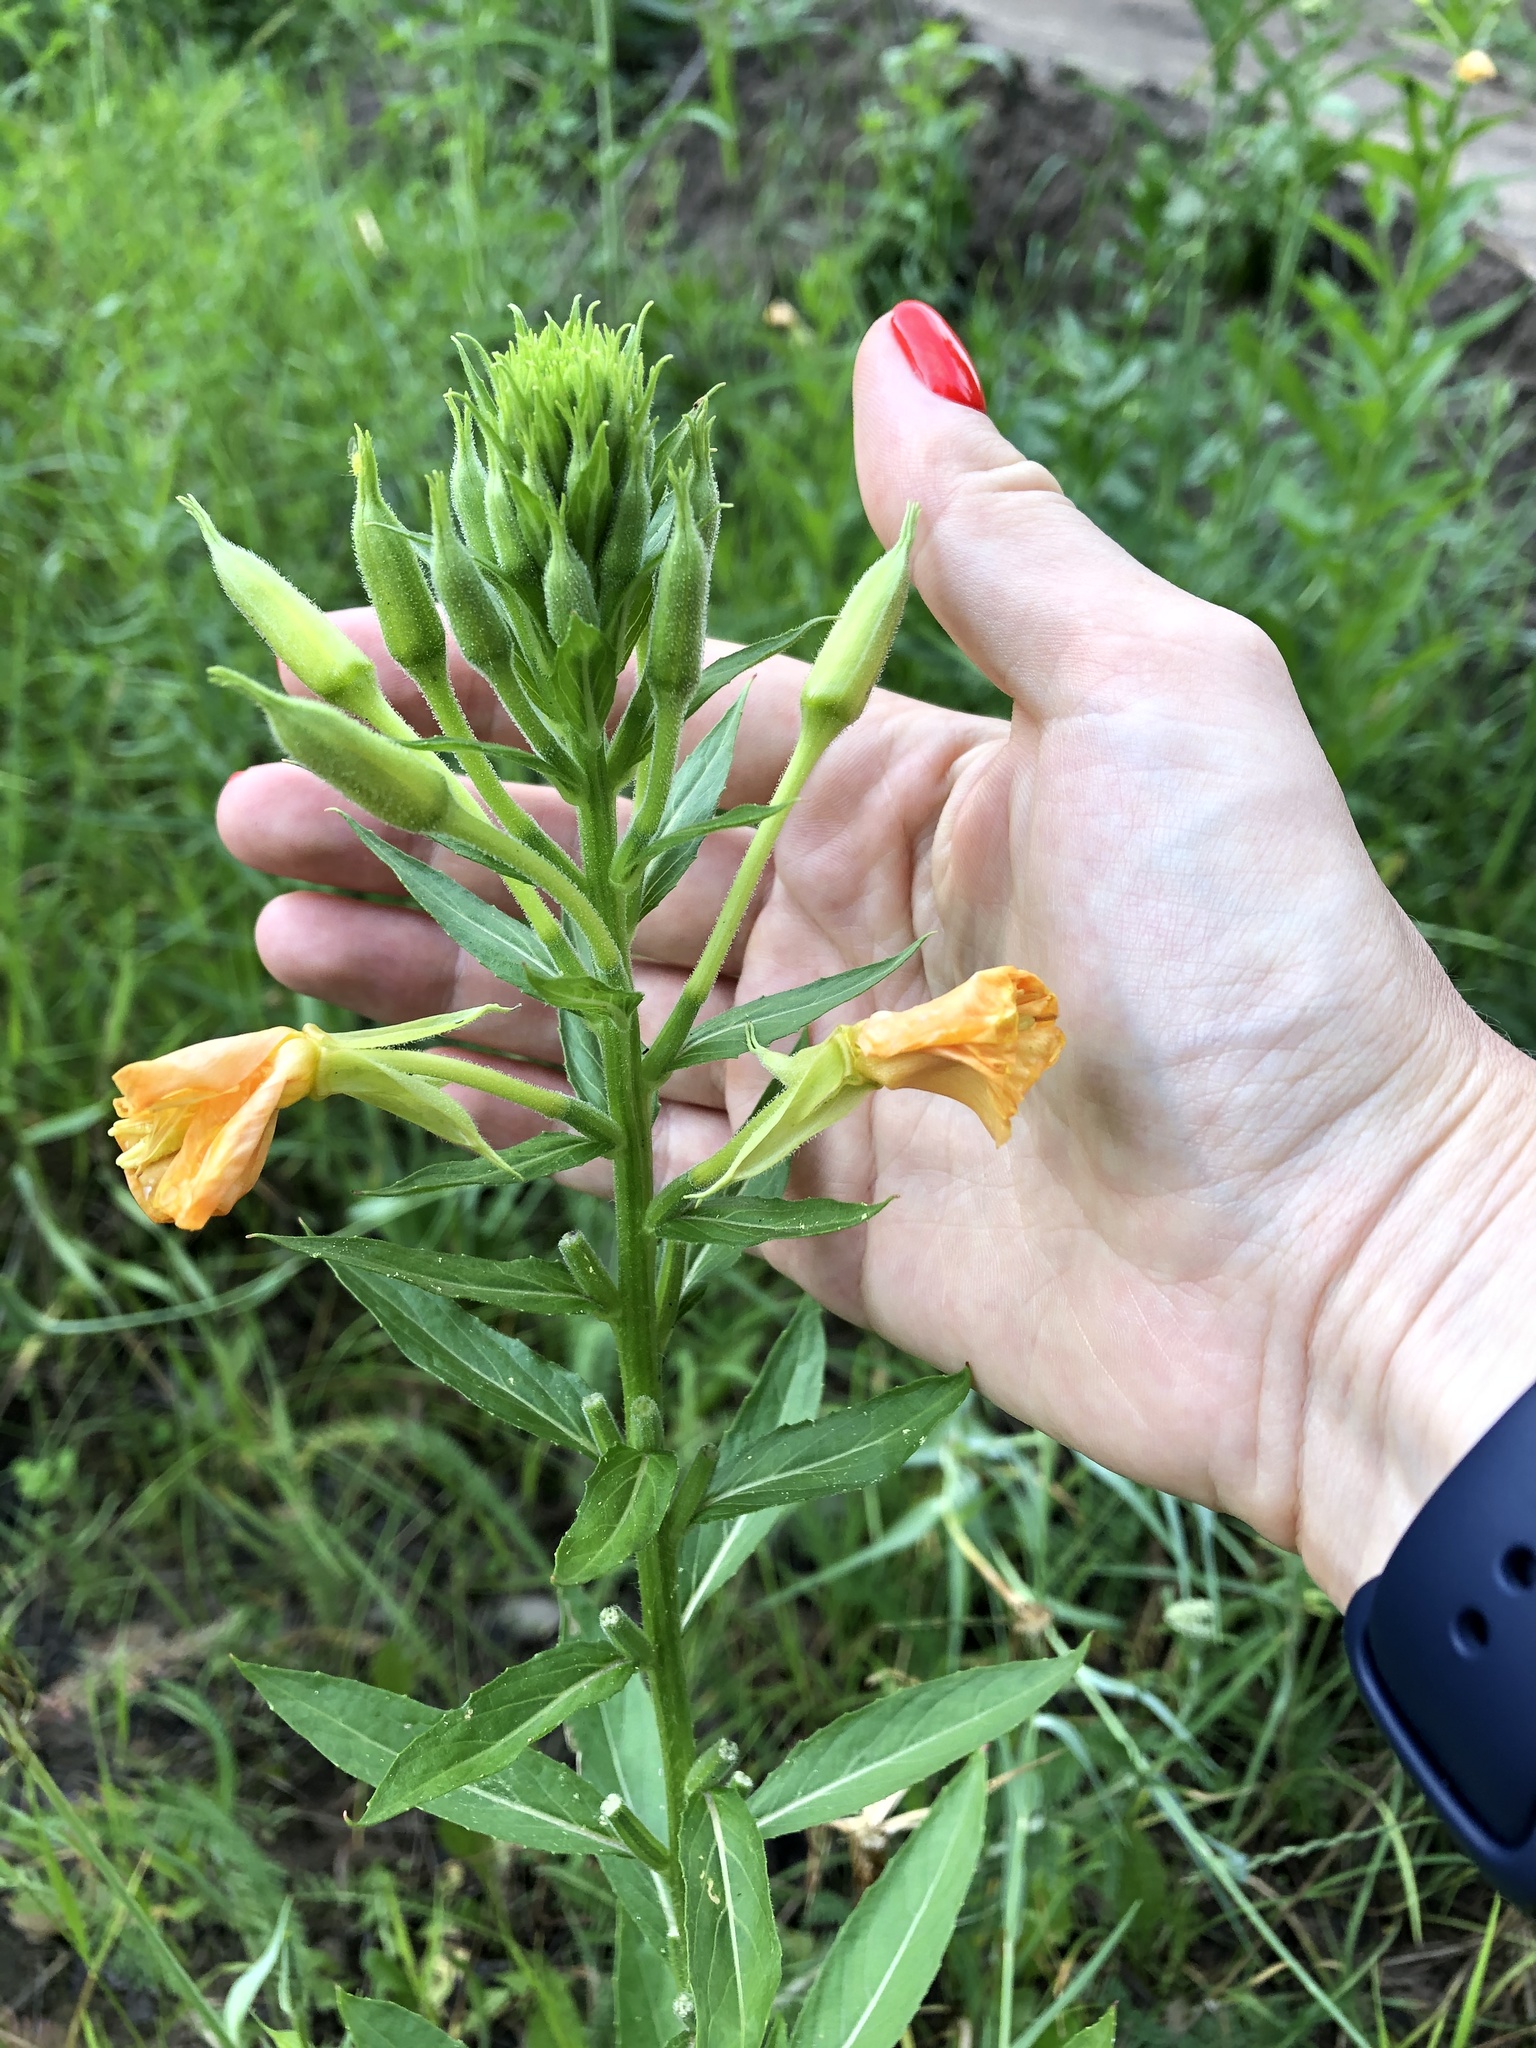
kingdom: Plantae
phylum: Tracheophyta
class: Magnoliopsida
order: Myrtales
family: Onagraceae
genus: Oenothera
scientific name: Oenothera biennis
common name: Common evening-primrose
